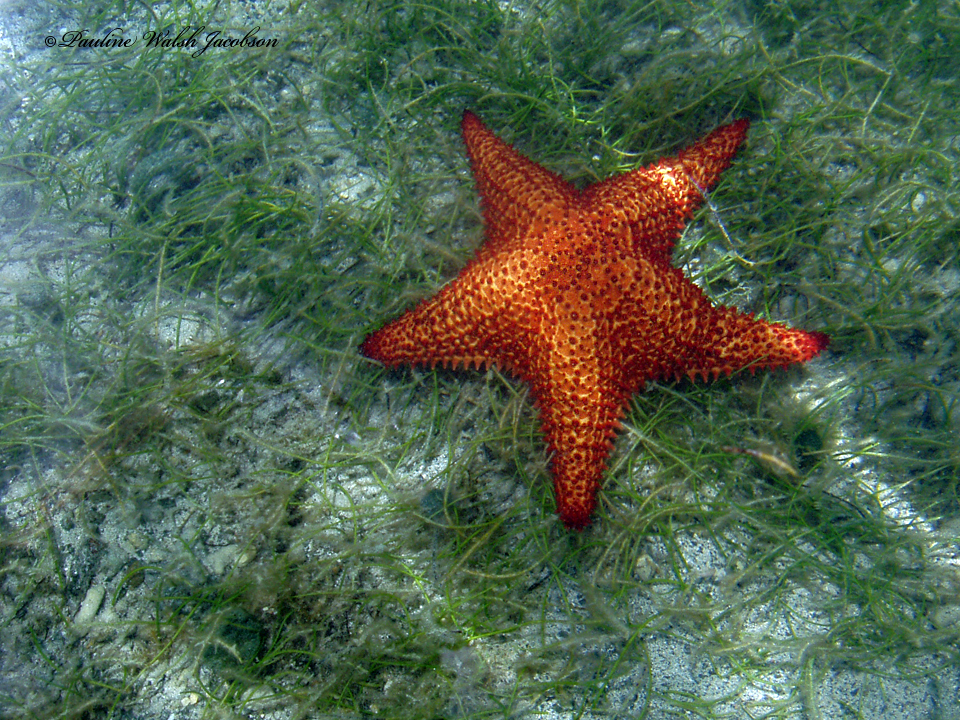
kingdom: Animalia
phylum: Echinodermata
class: Asteroidea
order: Valvatida
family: Oreasteridae
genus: Oreaster
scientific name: Oreaster reticulatus
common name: Cushion sea star
